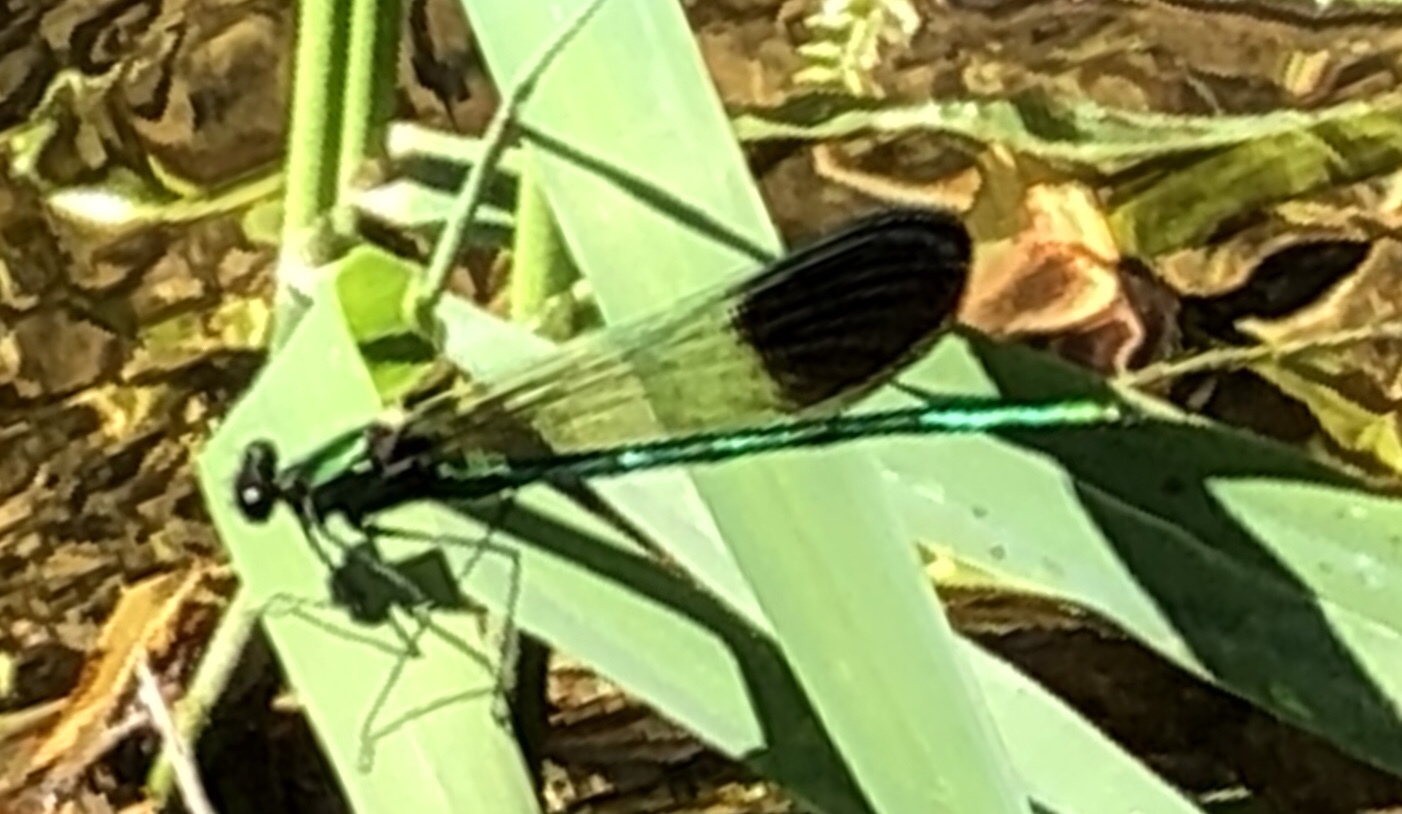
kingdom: Animalia
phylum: Arthropoda
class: Insecta
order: Odonata
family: Calopterygidae
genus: Calopteryx
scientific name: Calopteryx aequabilis
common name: River jewelwing
